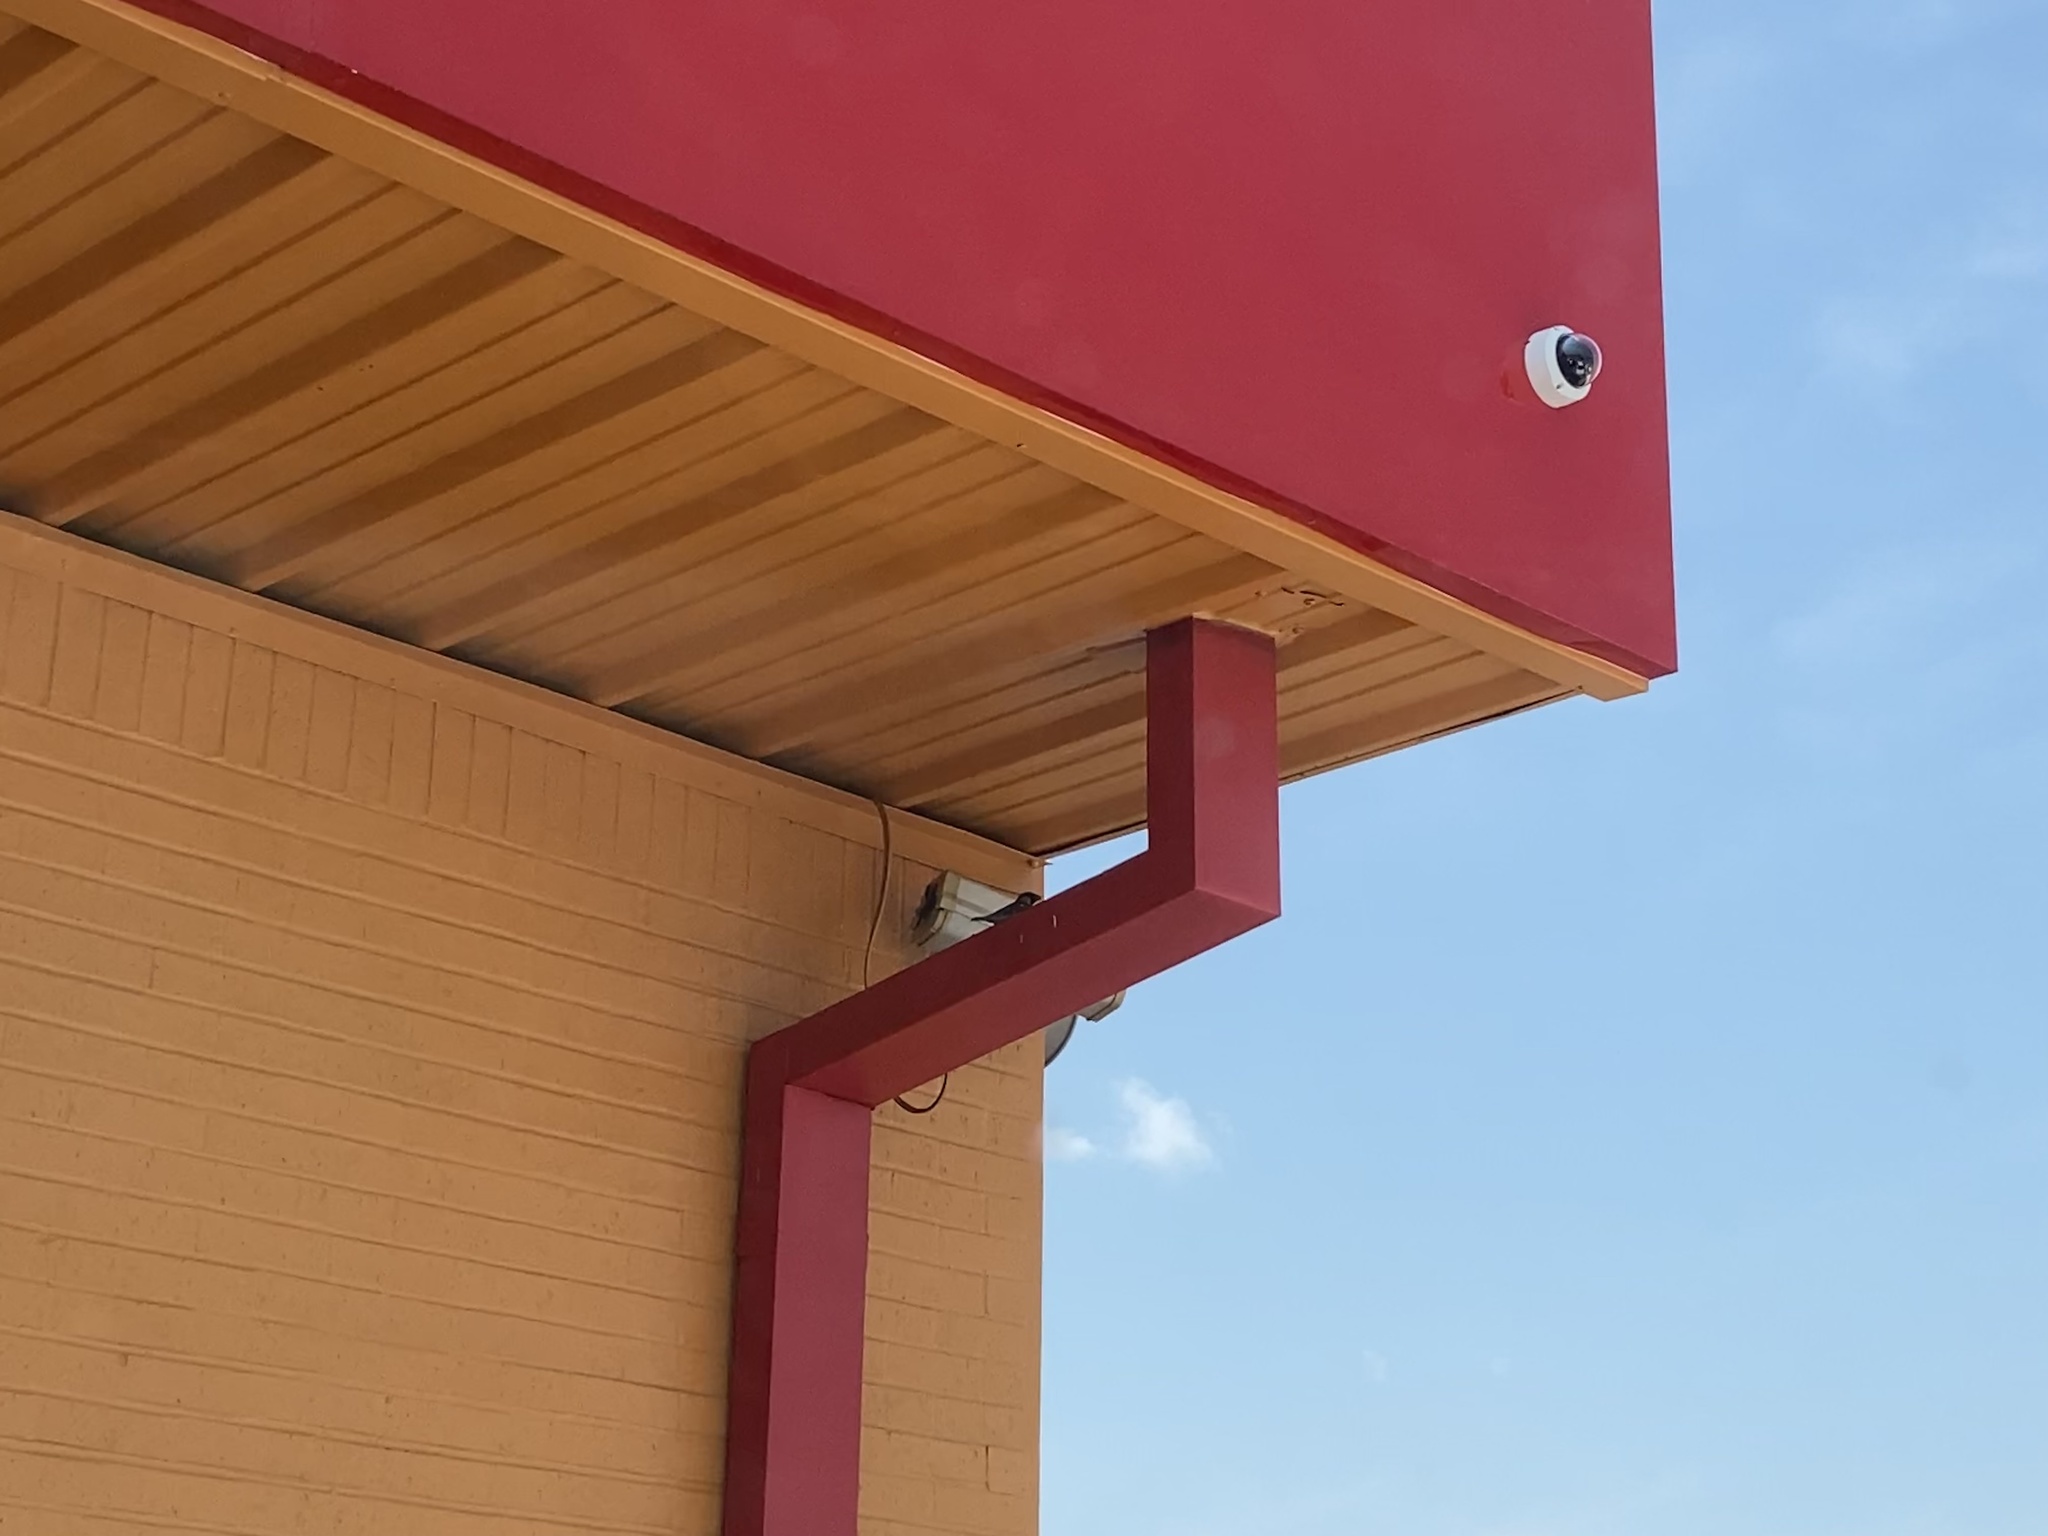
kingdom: Animalia
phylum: Chordata
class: Aves
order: Passeriformes
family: Passeridae
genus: Passer
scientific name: Passer domesticus
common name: House sparrow
